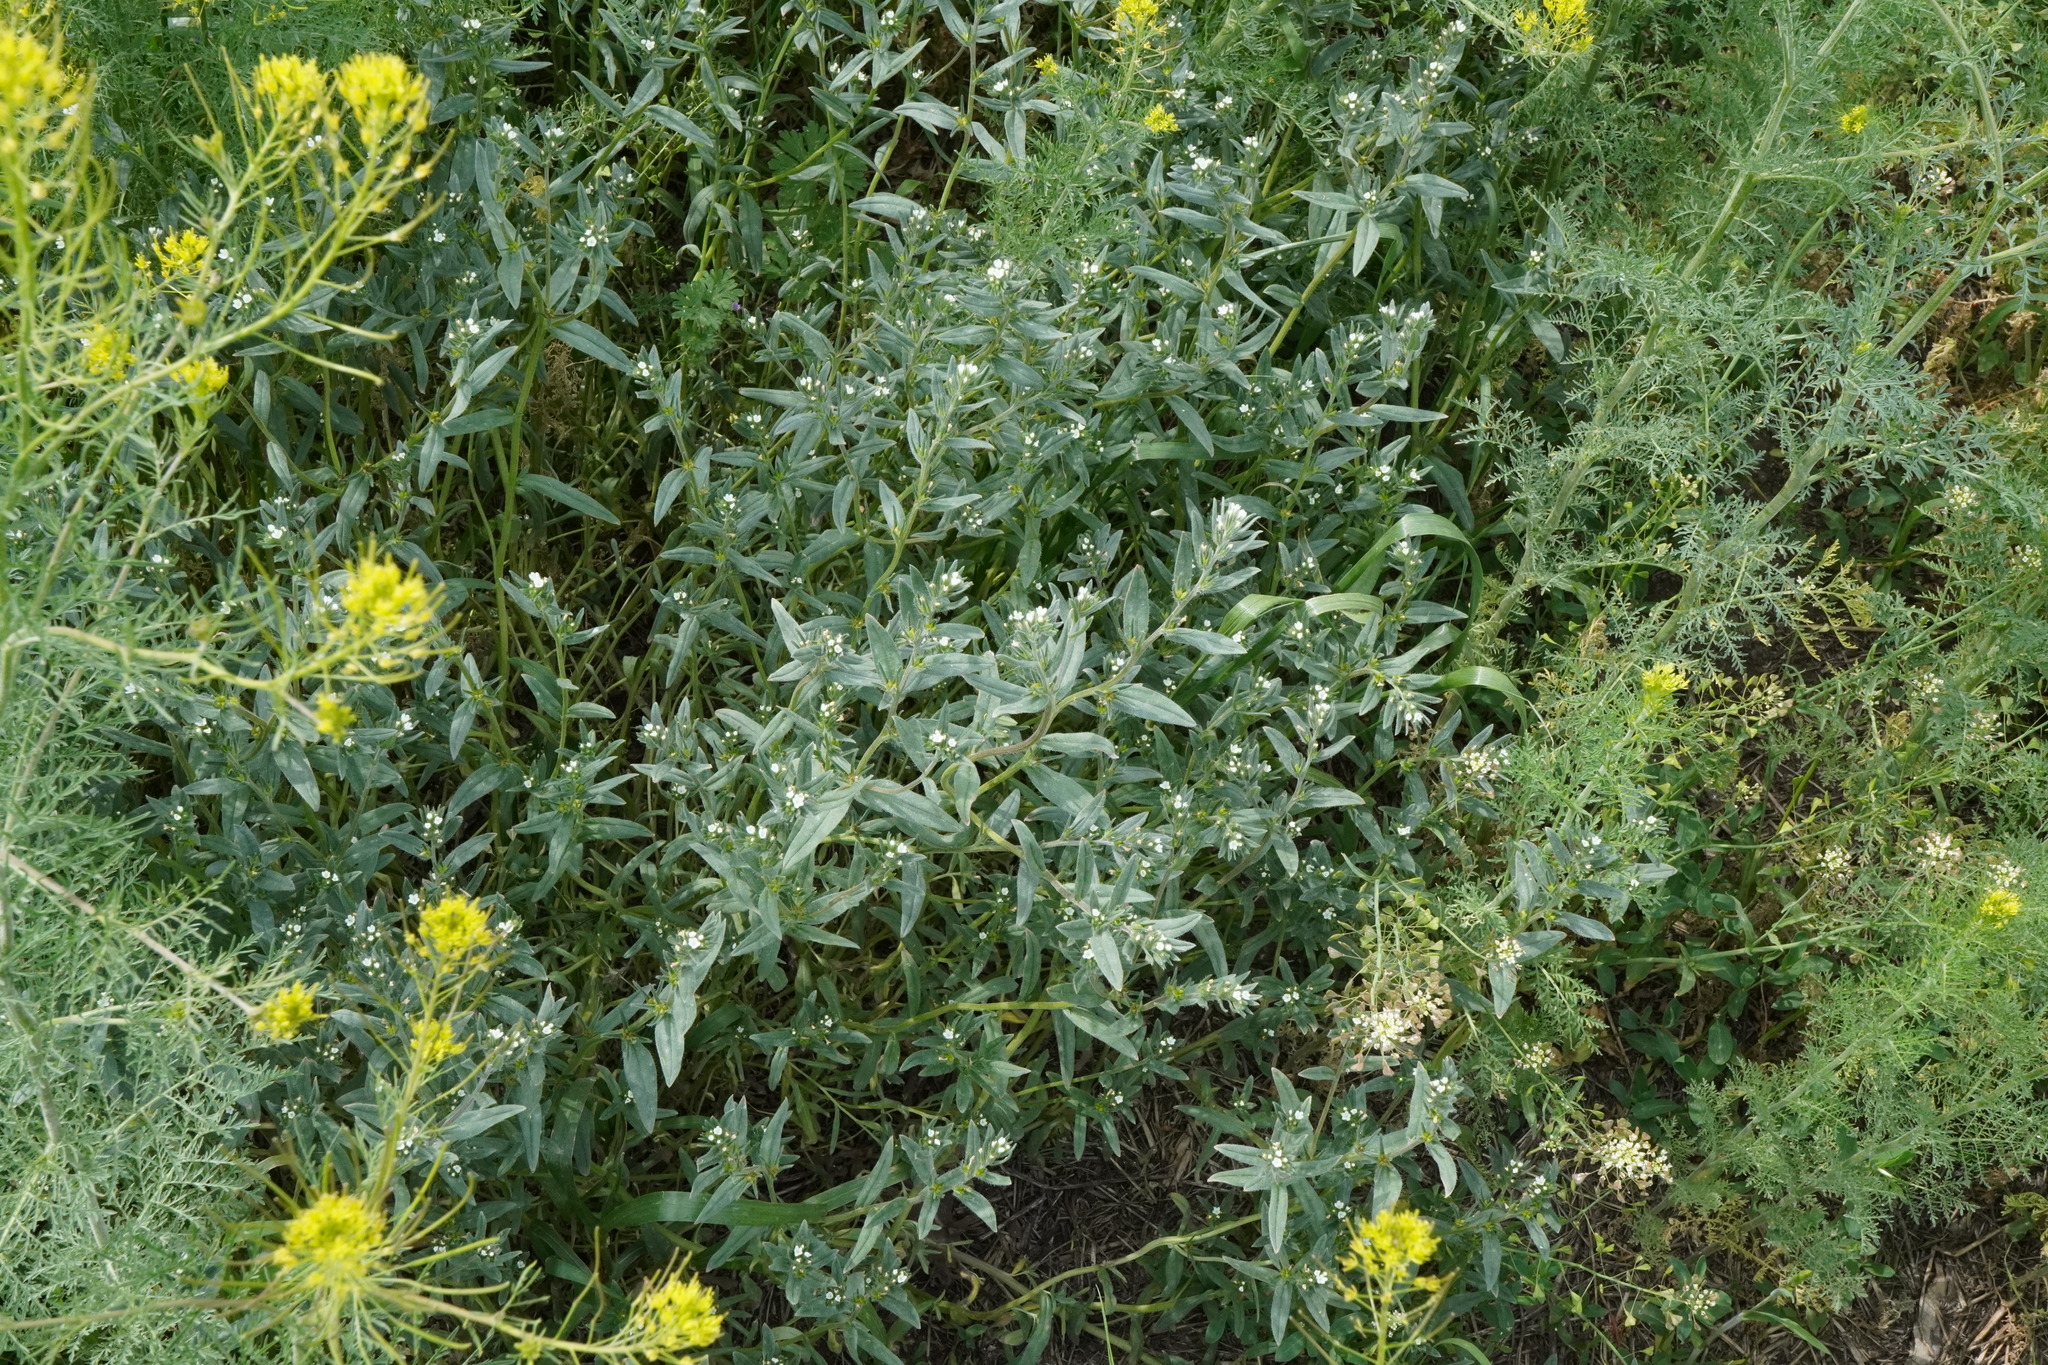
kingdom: Plantae
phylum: Tracheophyta
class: Magnoliopsida
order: Boraginales
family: Boraginaceae
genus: Buglossoides
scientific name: Buglossoides arvensis
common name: Corn gromwell
